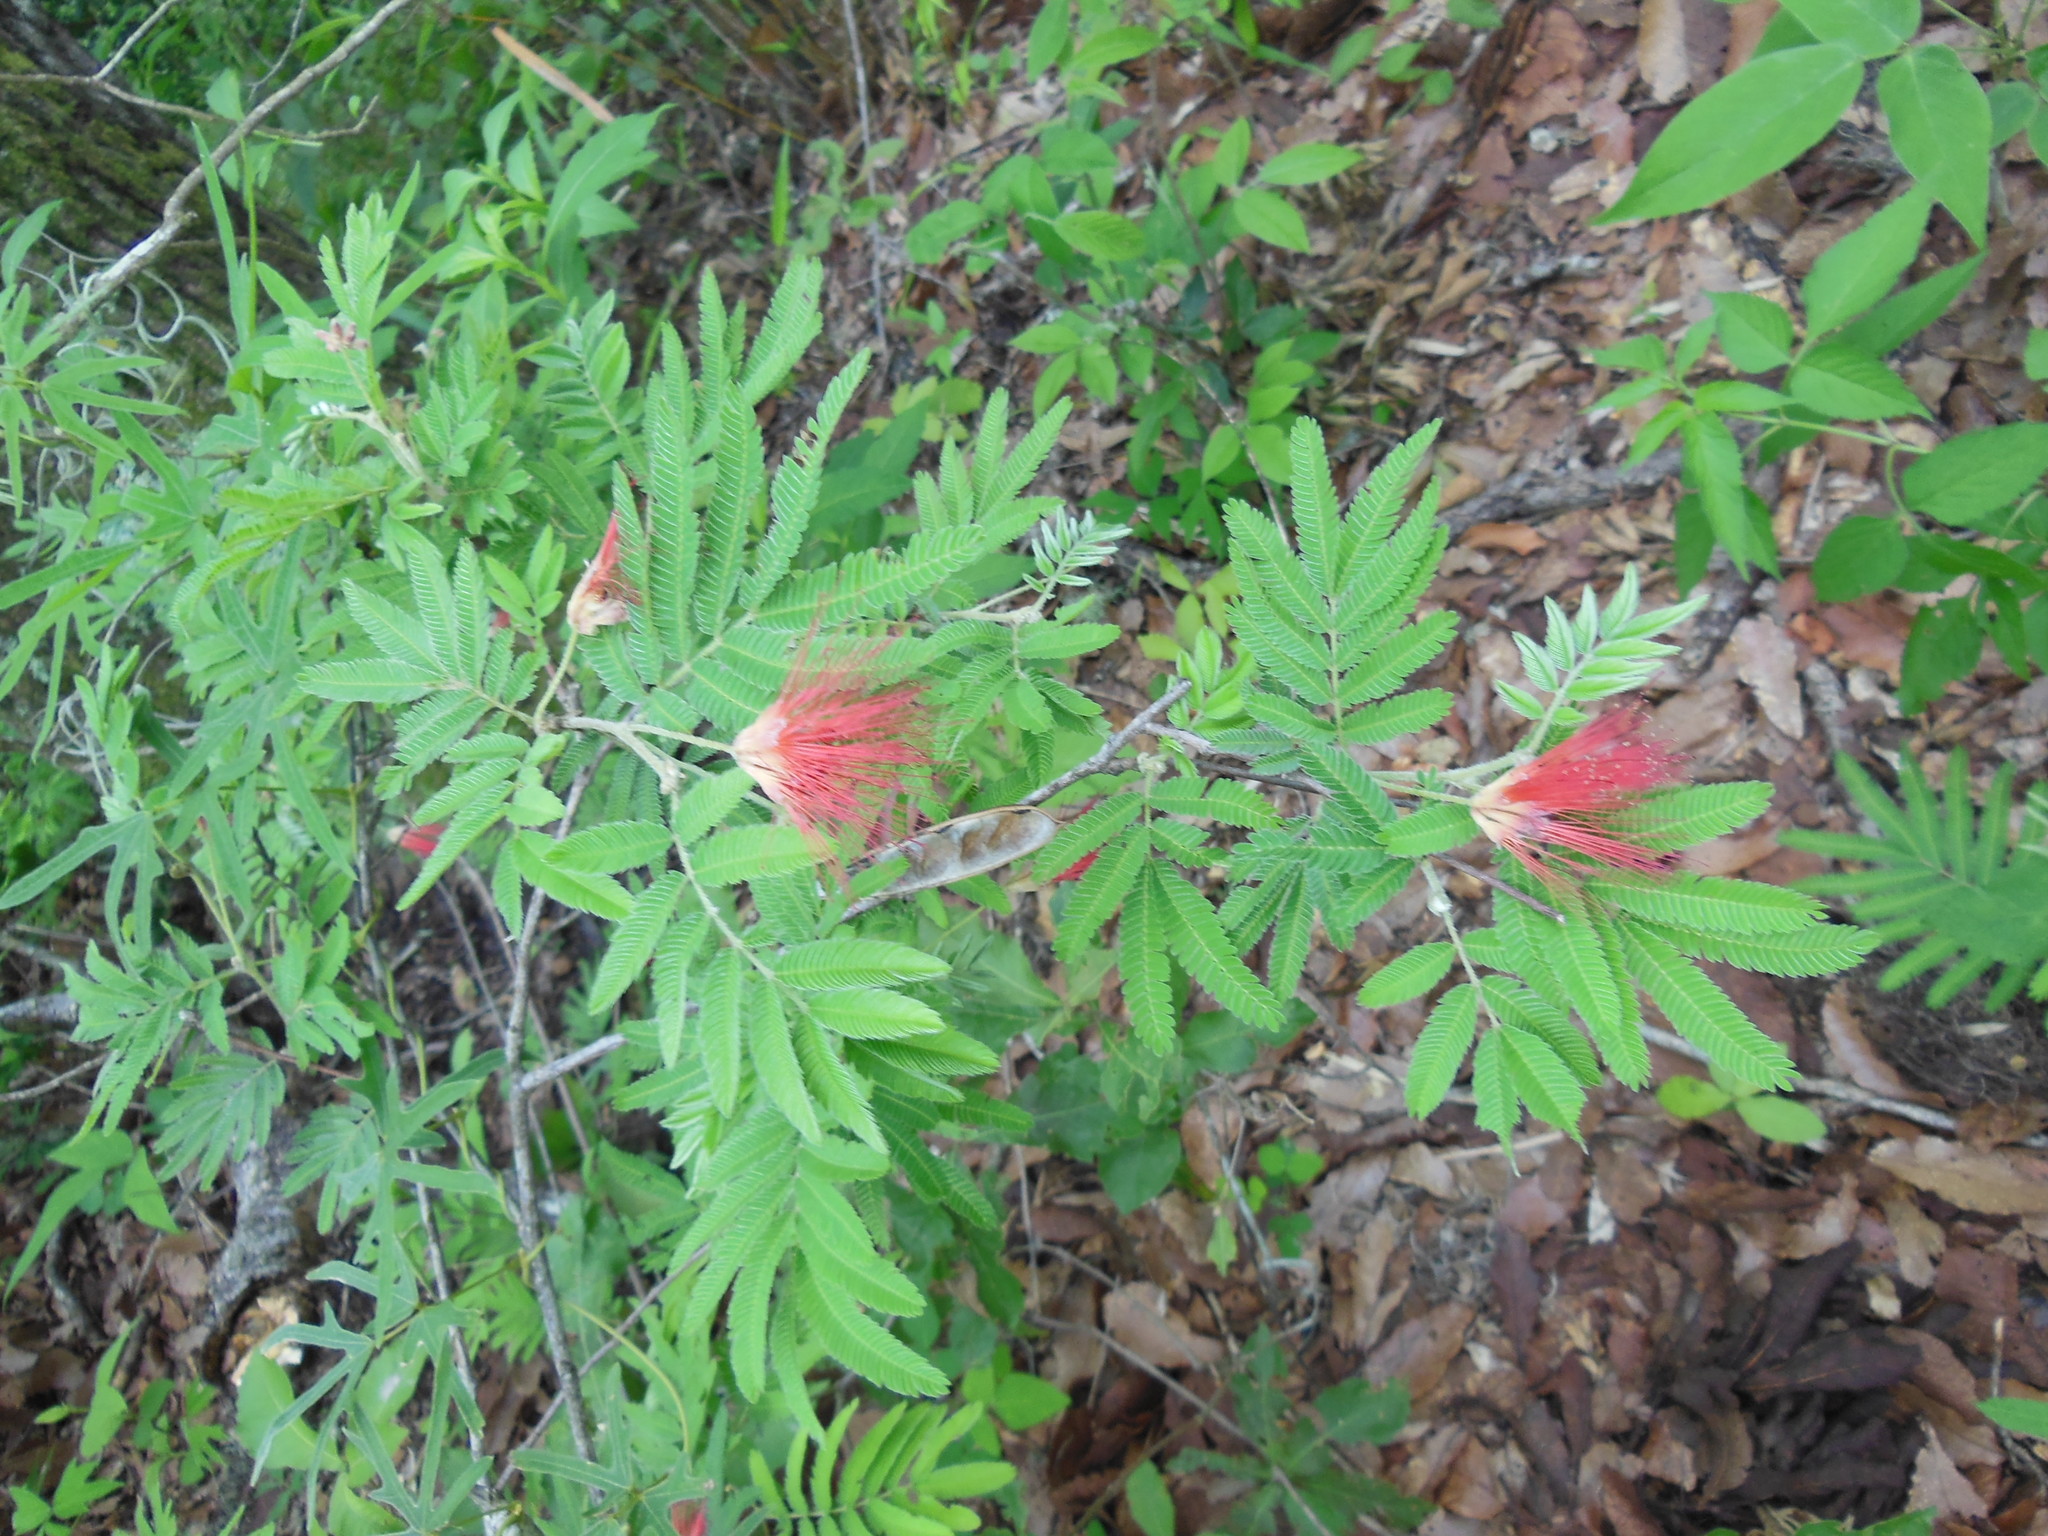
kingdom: Plantae
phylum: Tracheophyta
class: Magnoliopsida
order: Fabales
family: Fabaceae
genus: Calliandra
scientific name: Calliandra hirsuta
